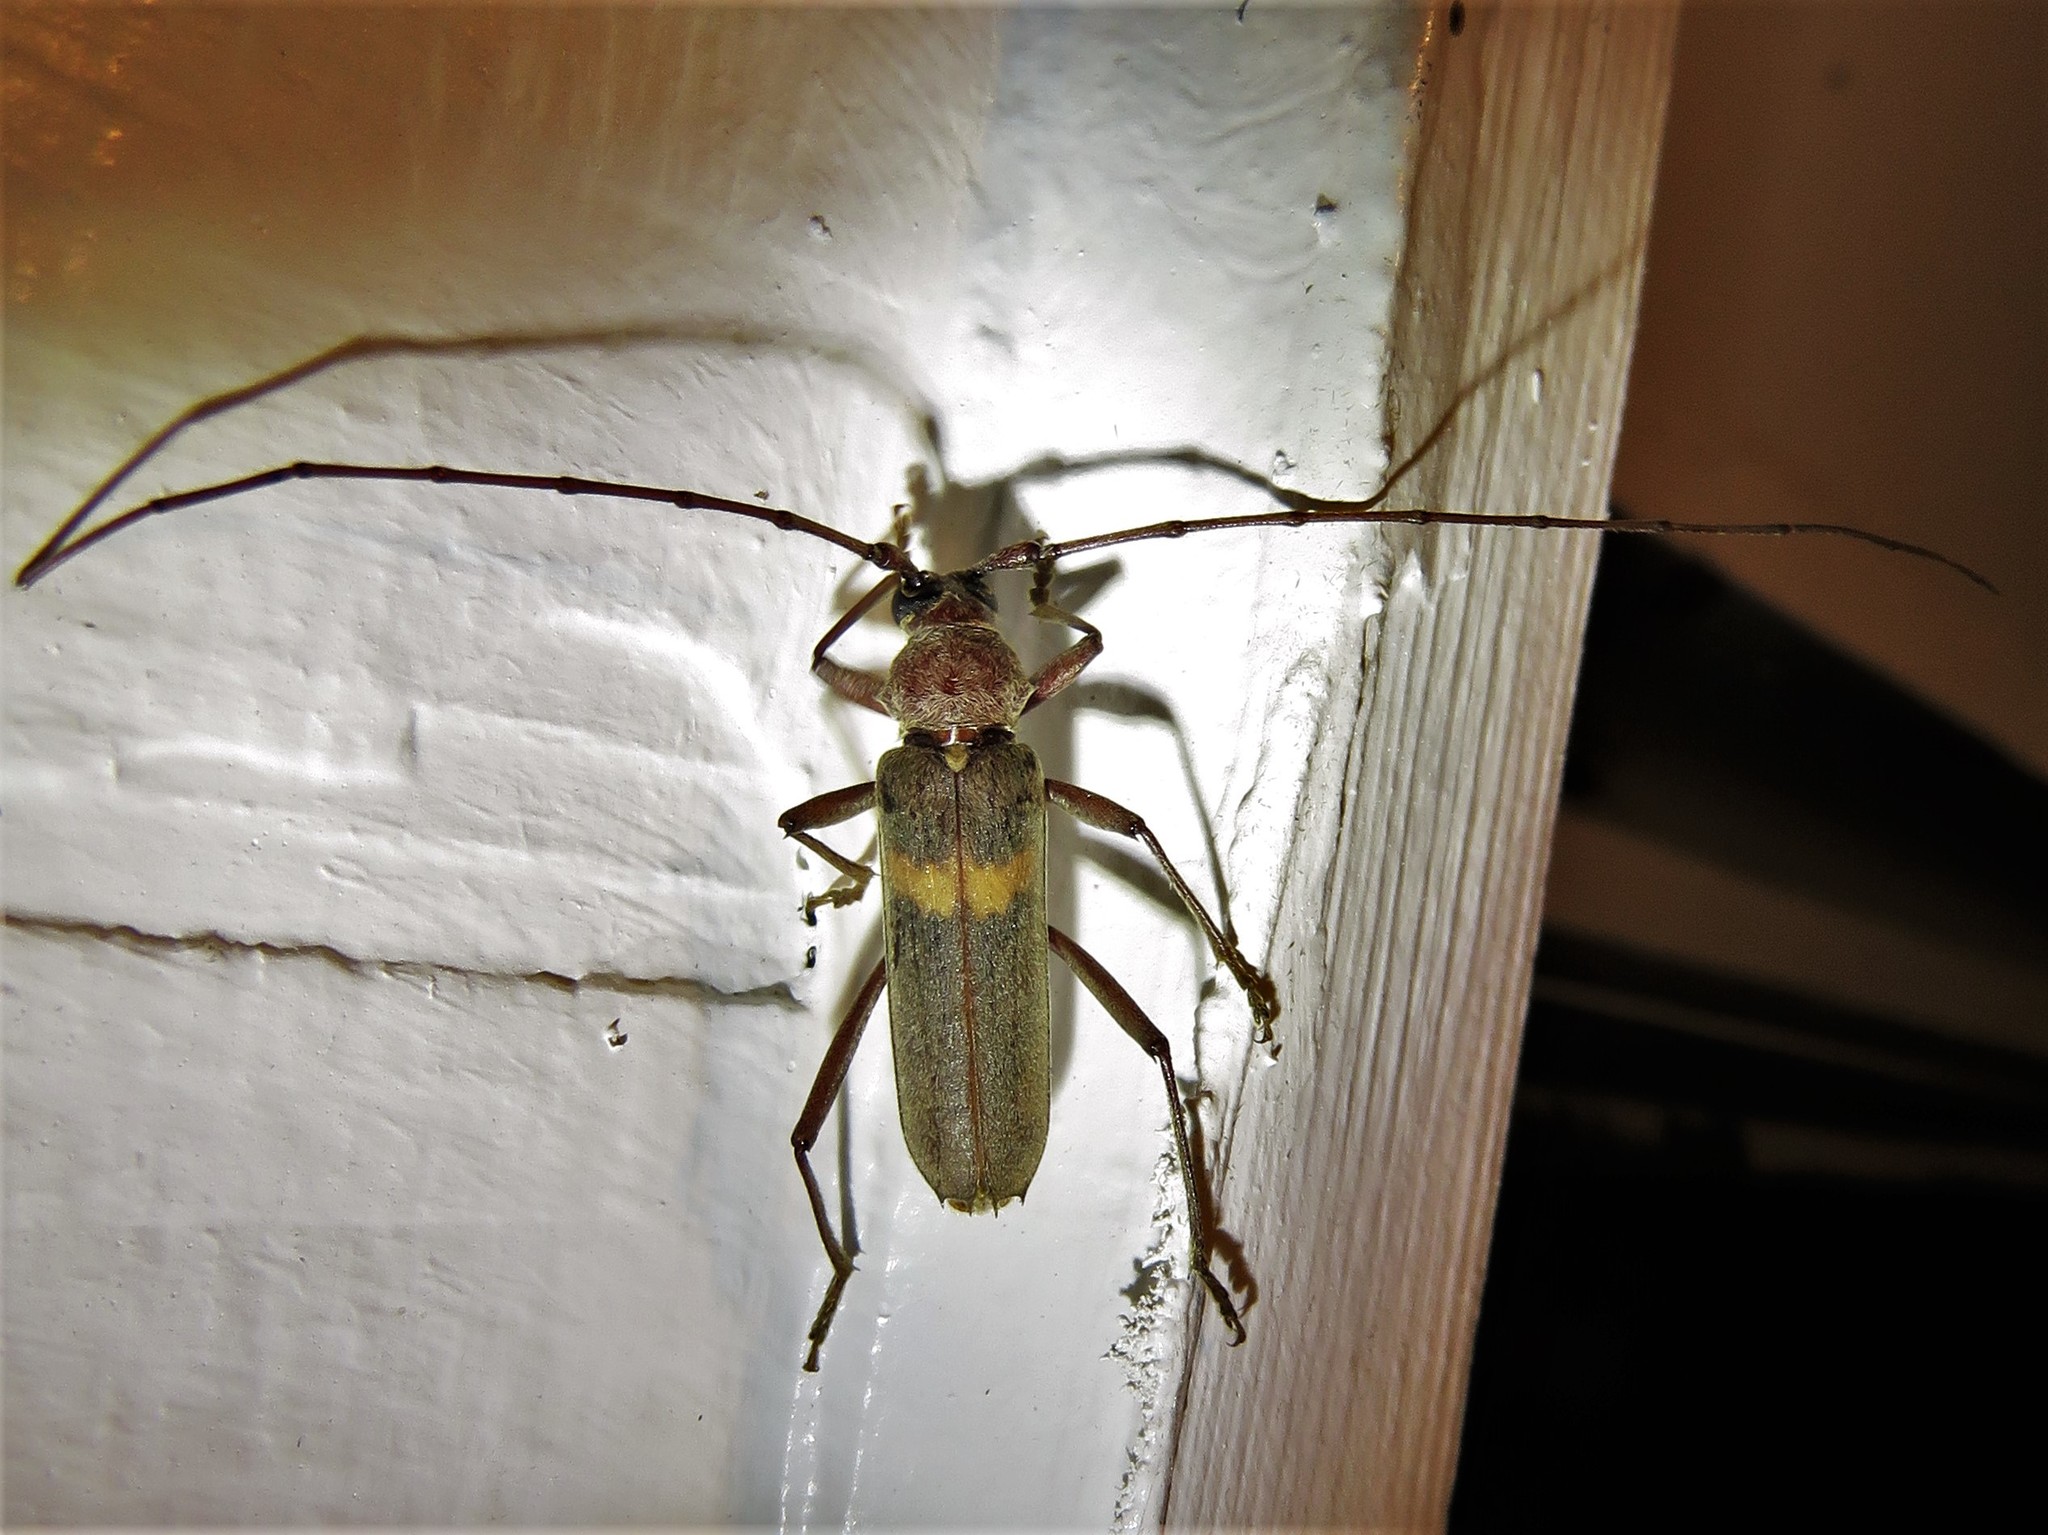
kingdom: Animalia
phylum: Arthropoda
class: Insecta
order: Coleoptera
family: Cerambycidae
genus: Knulliana
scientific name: Knulliana cincta
